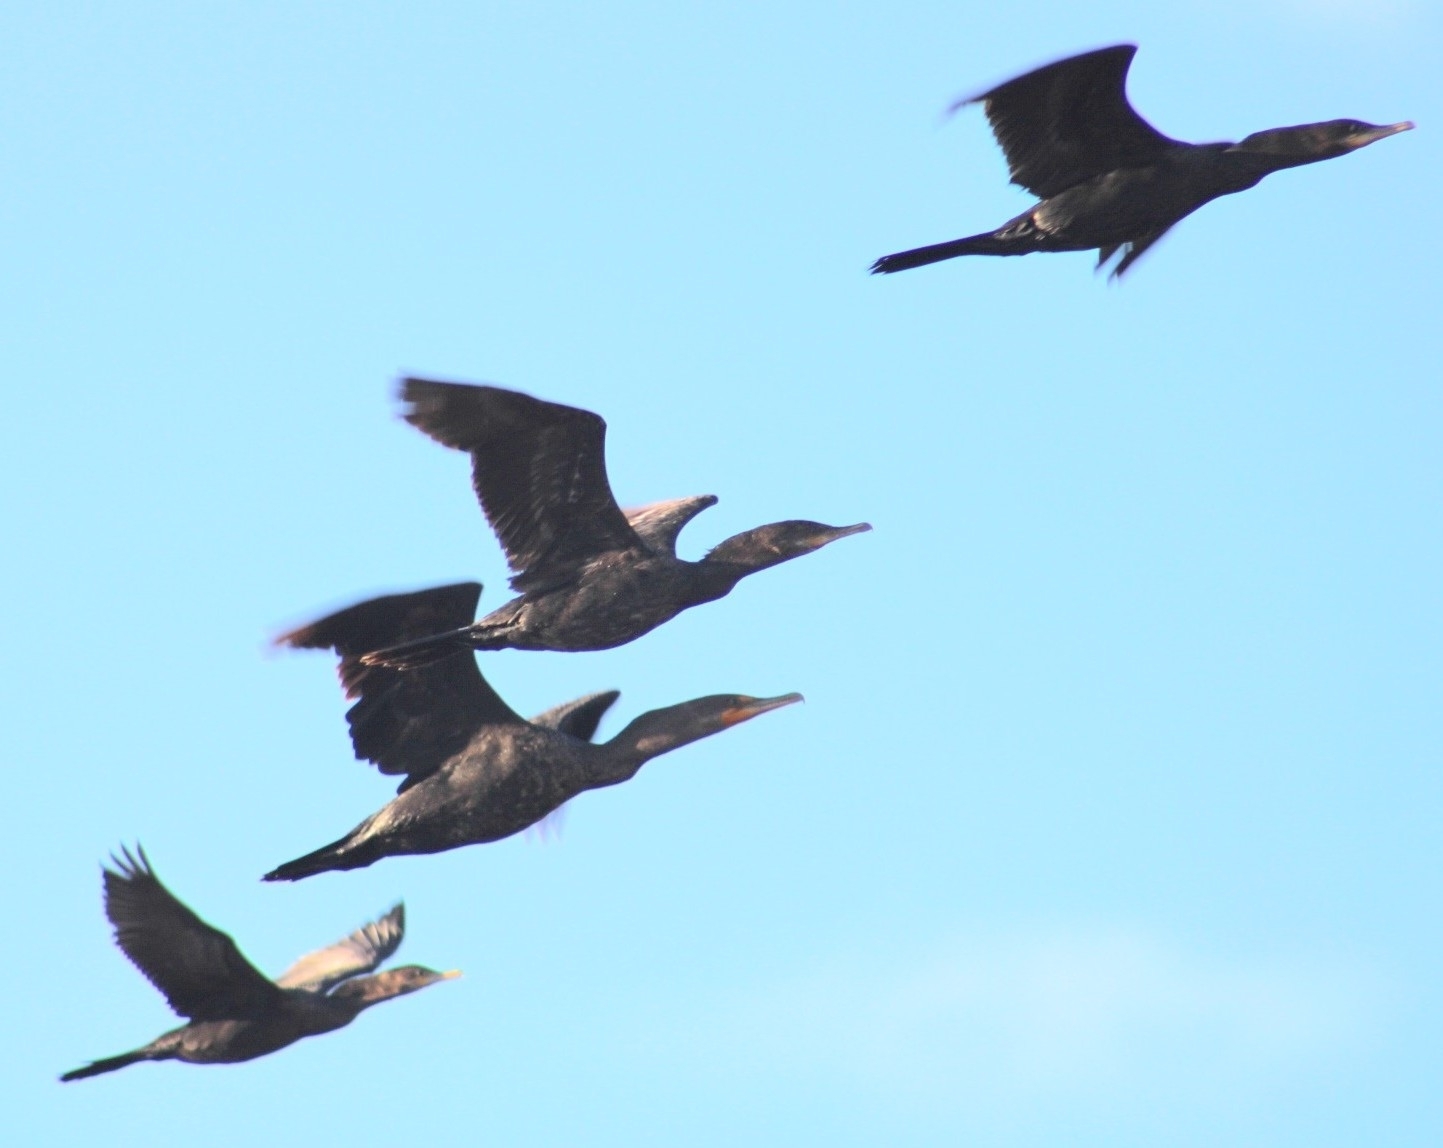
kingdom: Animalia
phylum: Chordata
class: Aves
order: Suliformes
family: Phalacrocoracidae
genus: Phalacrocorax
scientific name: Phalacrocorax auritus
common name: Double-crested cormorant
